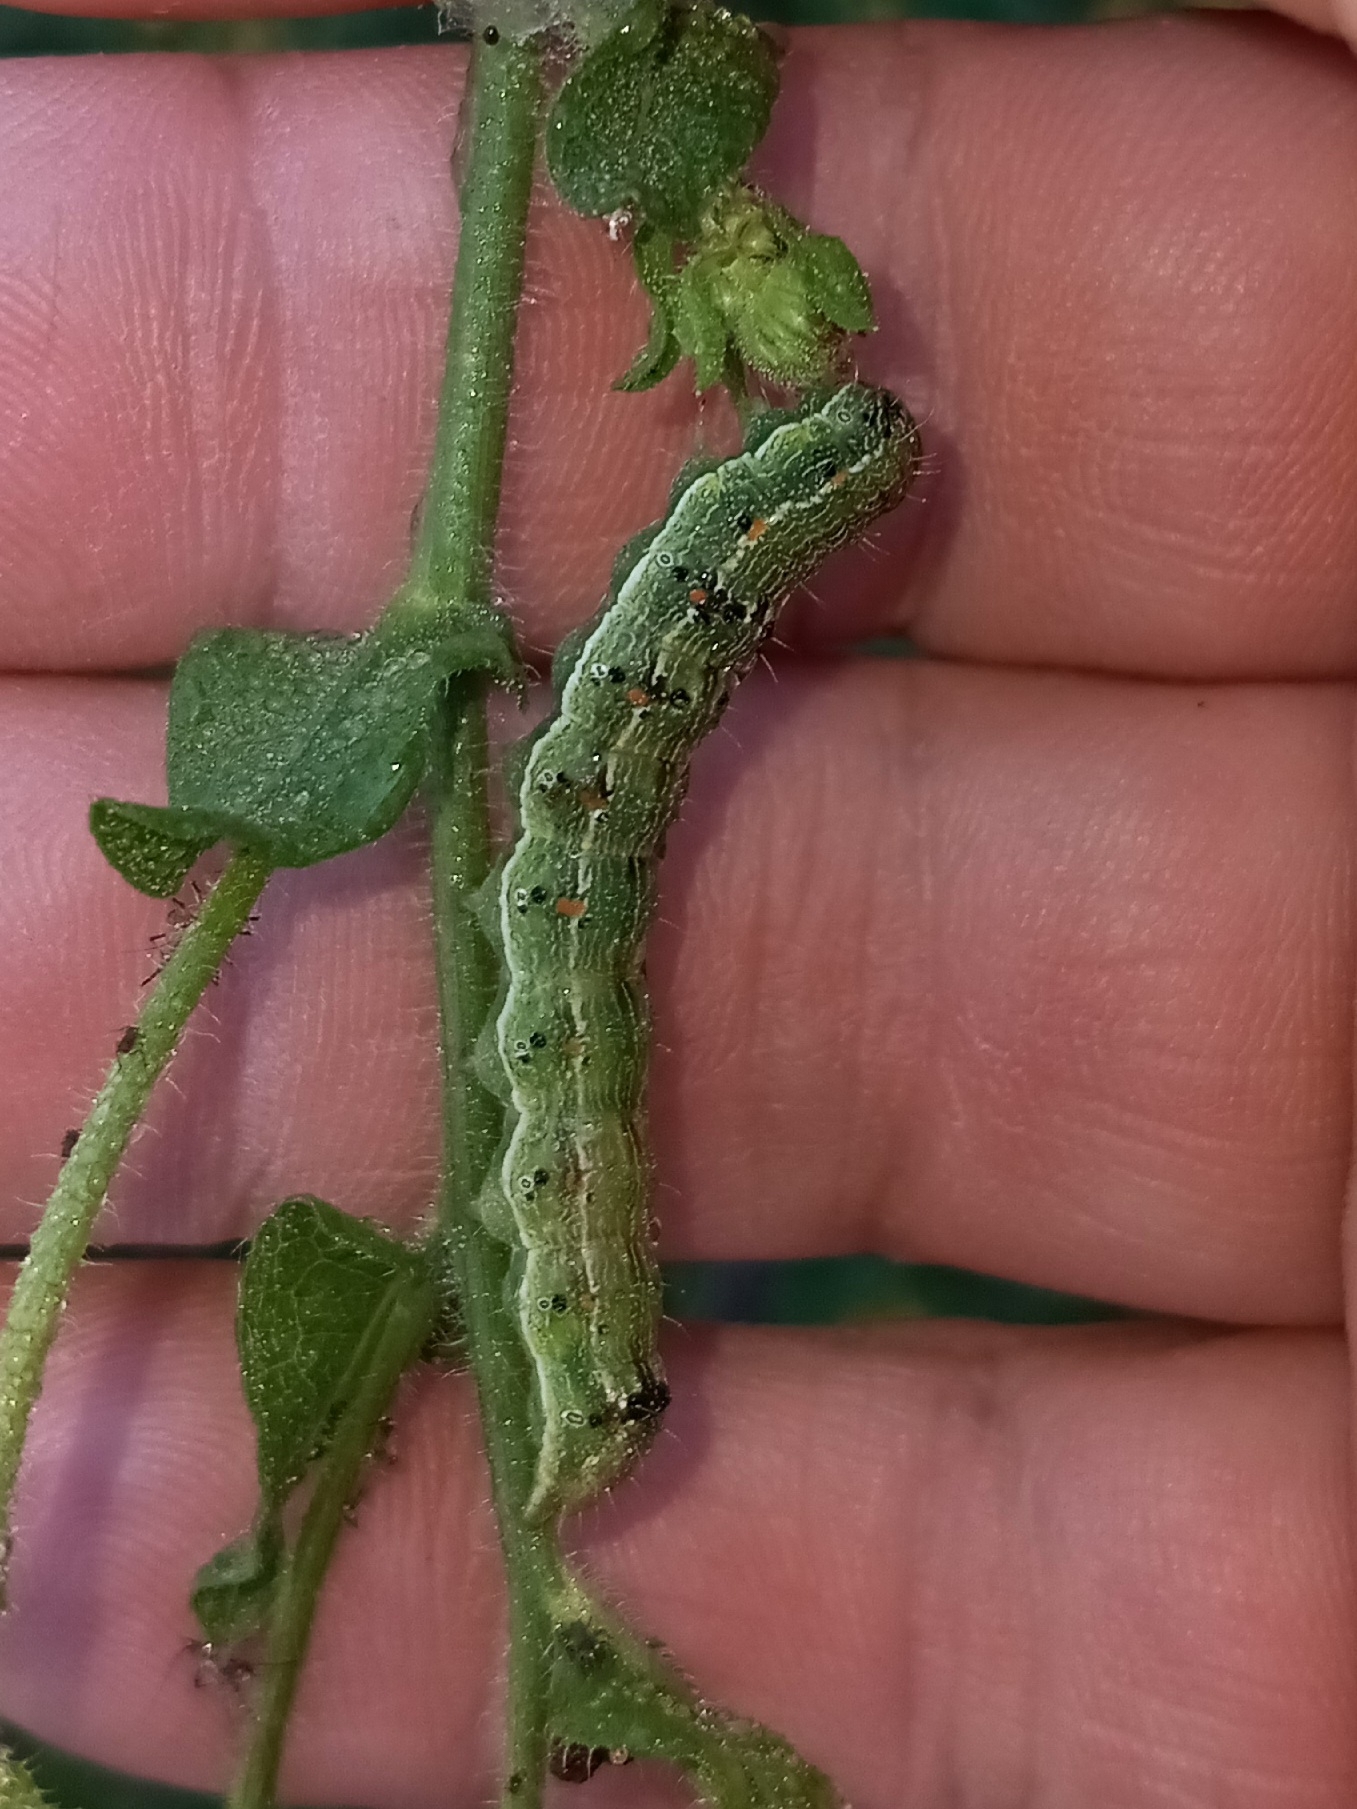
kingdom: Animalia
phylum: Arthropoda
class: Insecta
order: Lepidoptera
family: Noctuidae
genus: Chloridea
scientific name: Chloridea virescens
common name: Tobacco budworm
